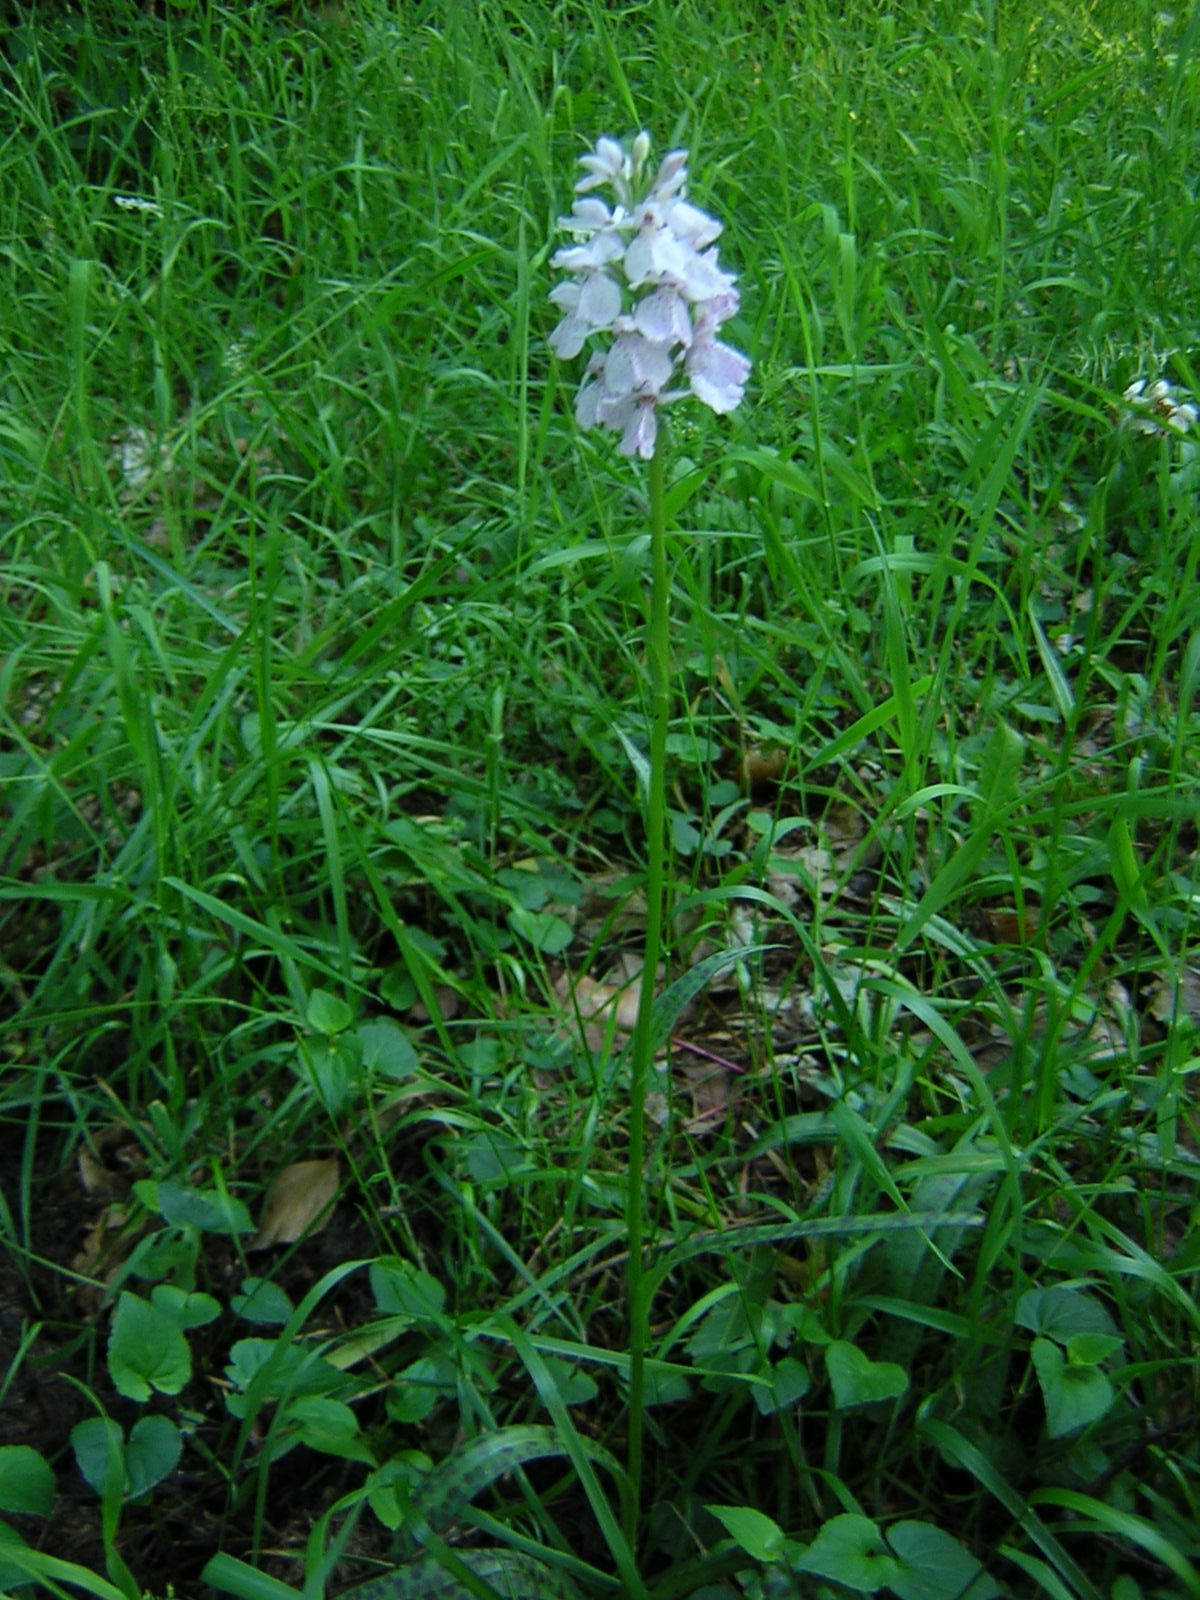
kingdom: Plantae
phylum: Tracheophyta
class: Liliopsida
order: Asparagales
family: Orchidaceae
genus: Dactylorhiza
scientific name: Dactylorhiza maculata
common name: Heath spotted-orchid
